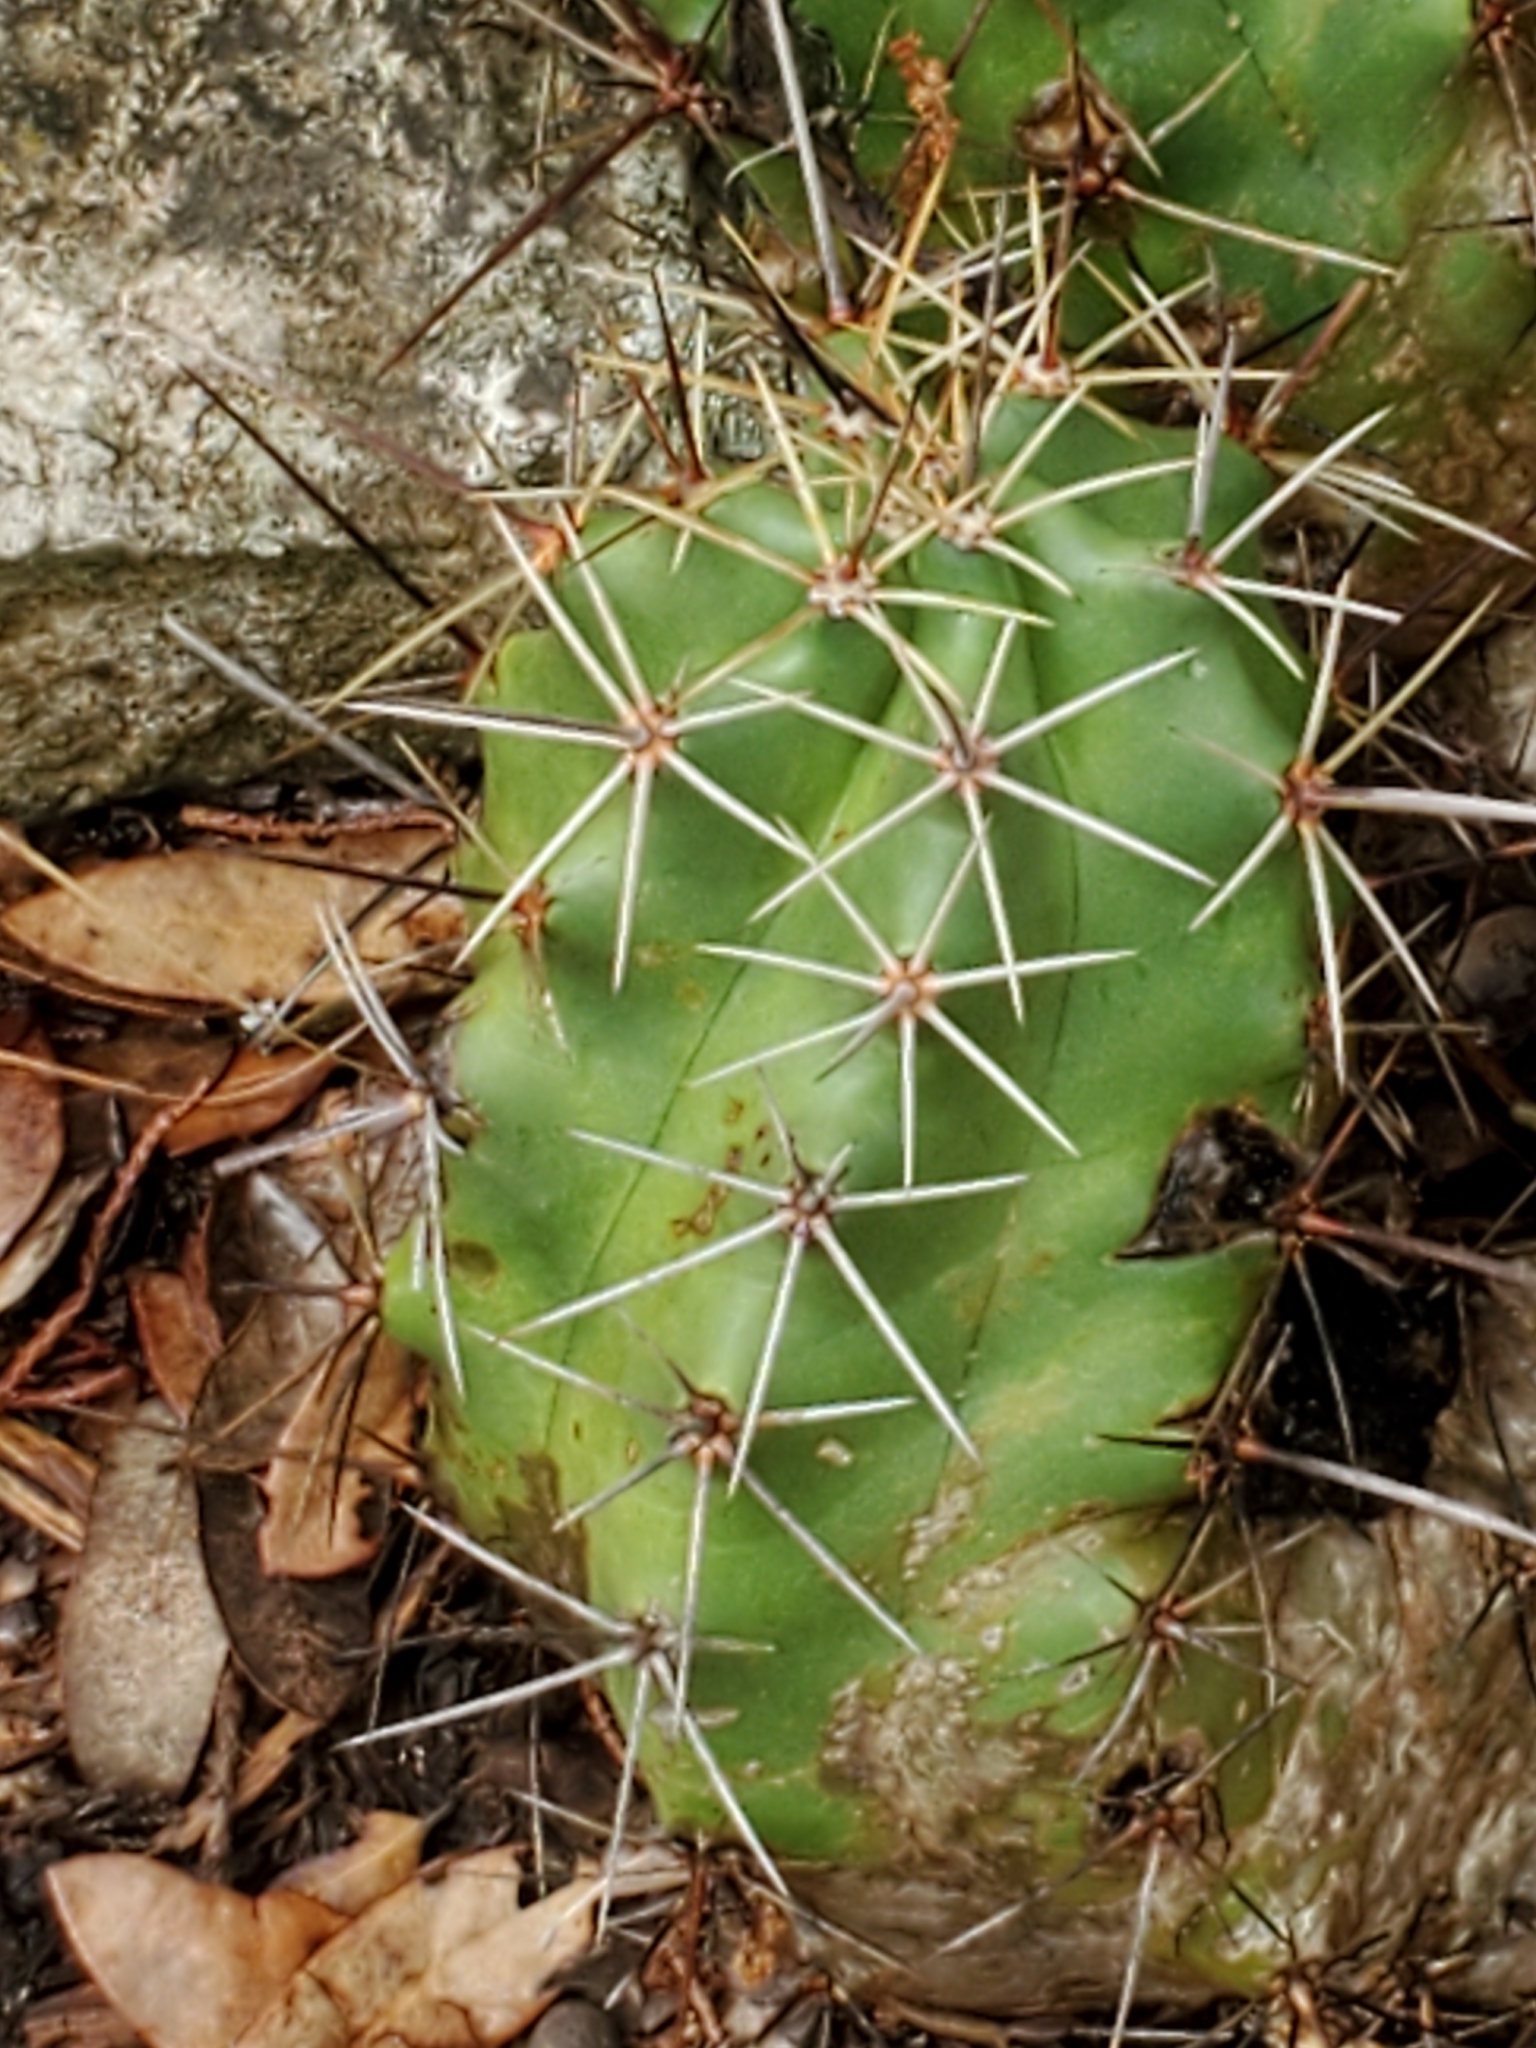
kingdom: Plantae
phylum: Tracheophyta
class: Magnoliopsida
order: Caryophyllales
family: Cactaceae
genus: Echinocereus
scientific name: Echinocereus coccineus
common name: Scarlet hedgehog cactus
